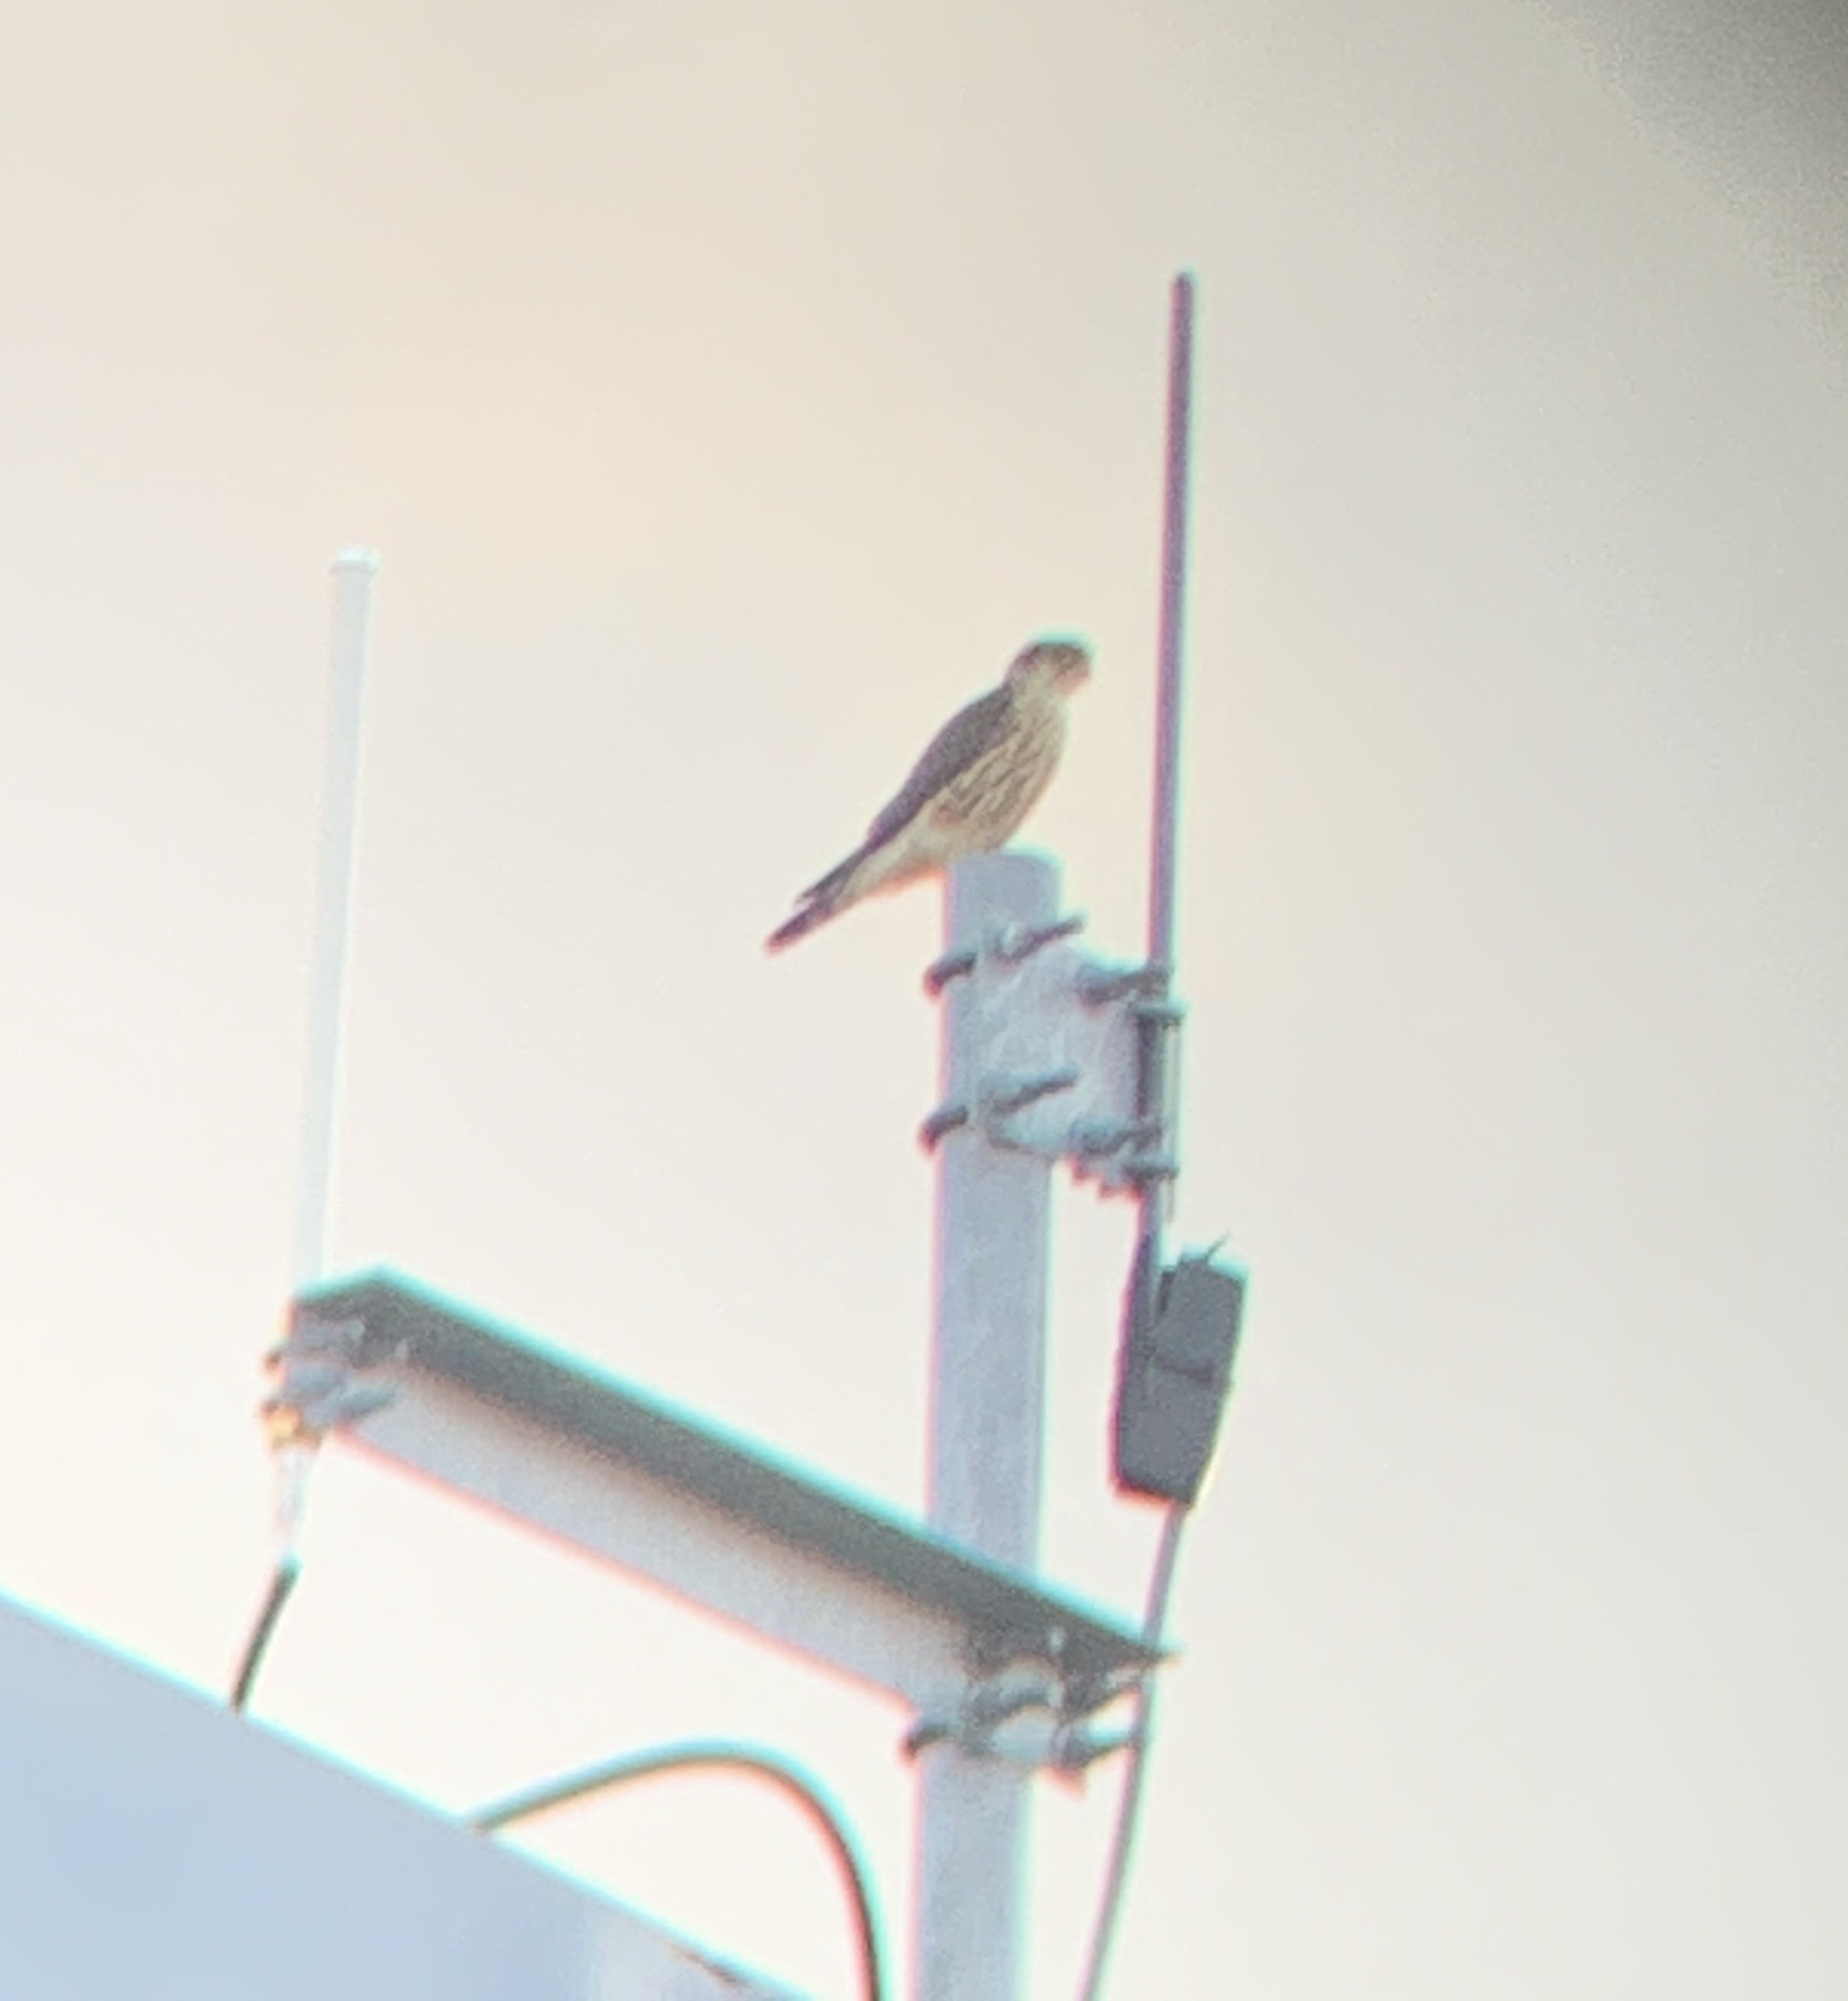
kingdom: Animalia
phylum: Chordata
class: Aves
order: Falconiformes
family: Falconidae
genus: Falco
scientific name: Falco columbarius
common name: Merlin
